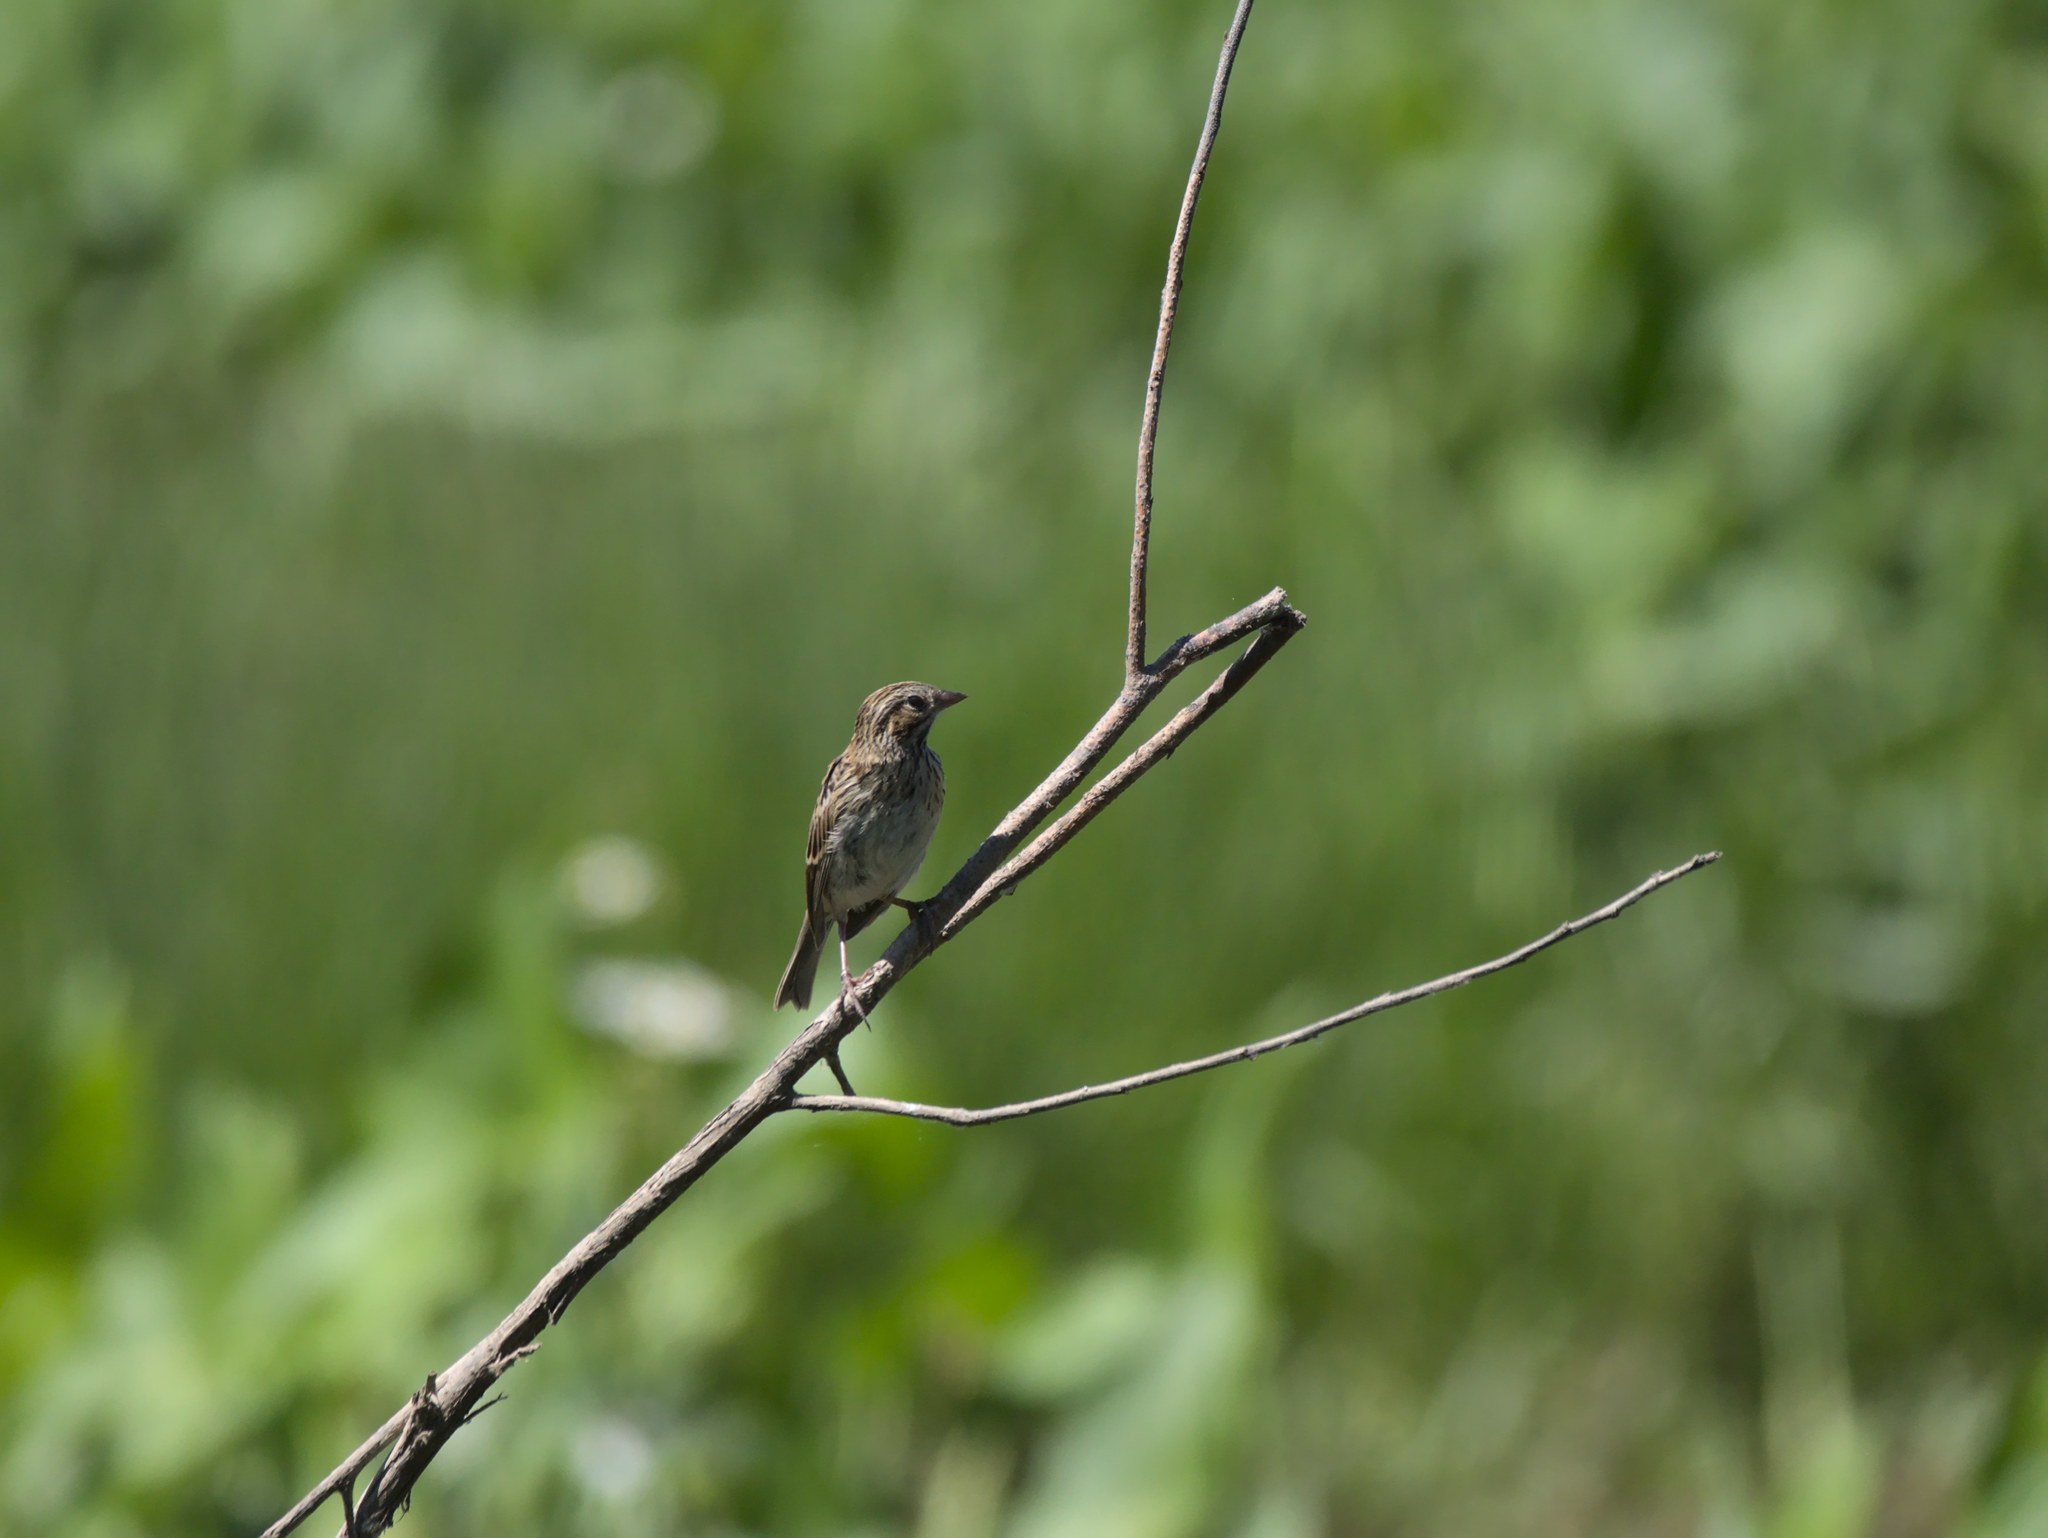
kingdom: Animalia
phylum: Chordata
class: Aves
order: Passeriformes
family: Passerellidae
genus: Passerculus
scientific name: Passerculus sandwichensis
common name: Savannah sparrow
